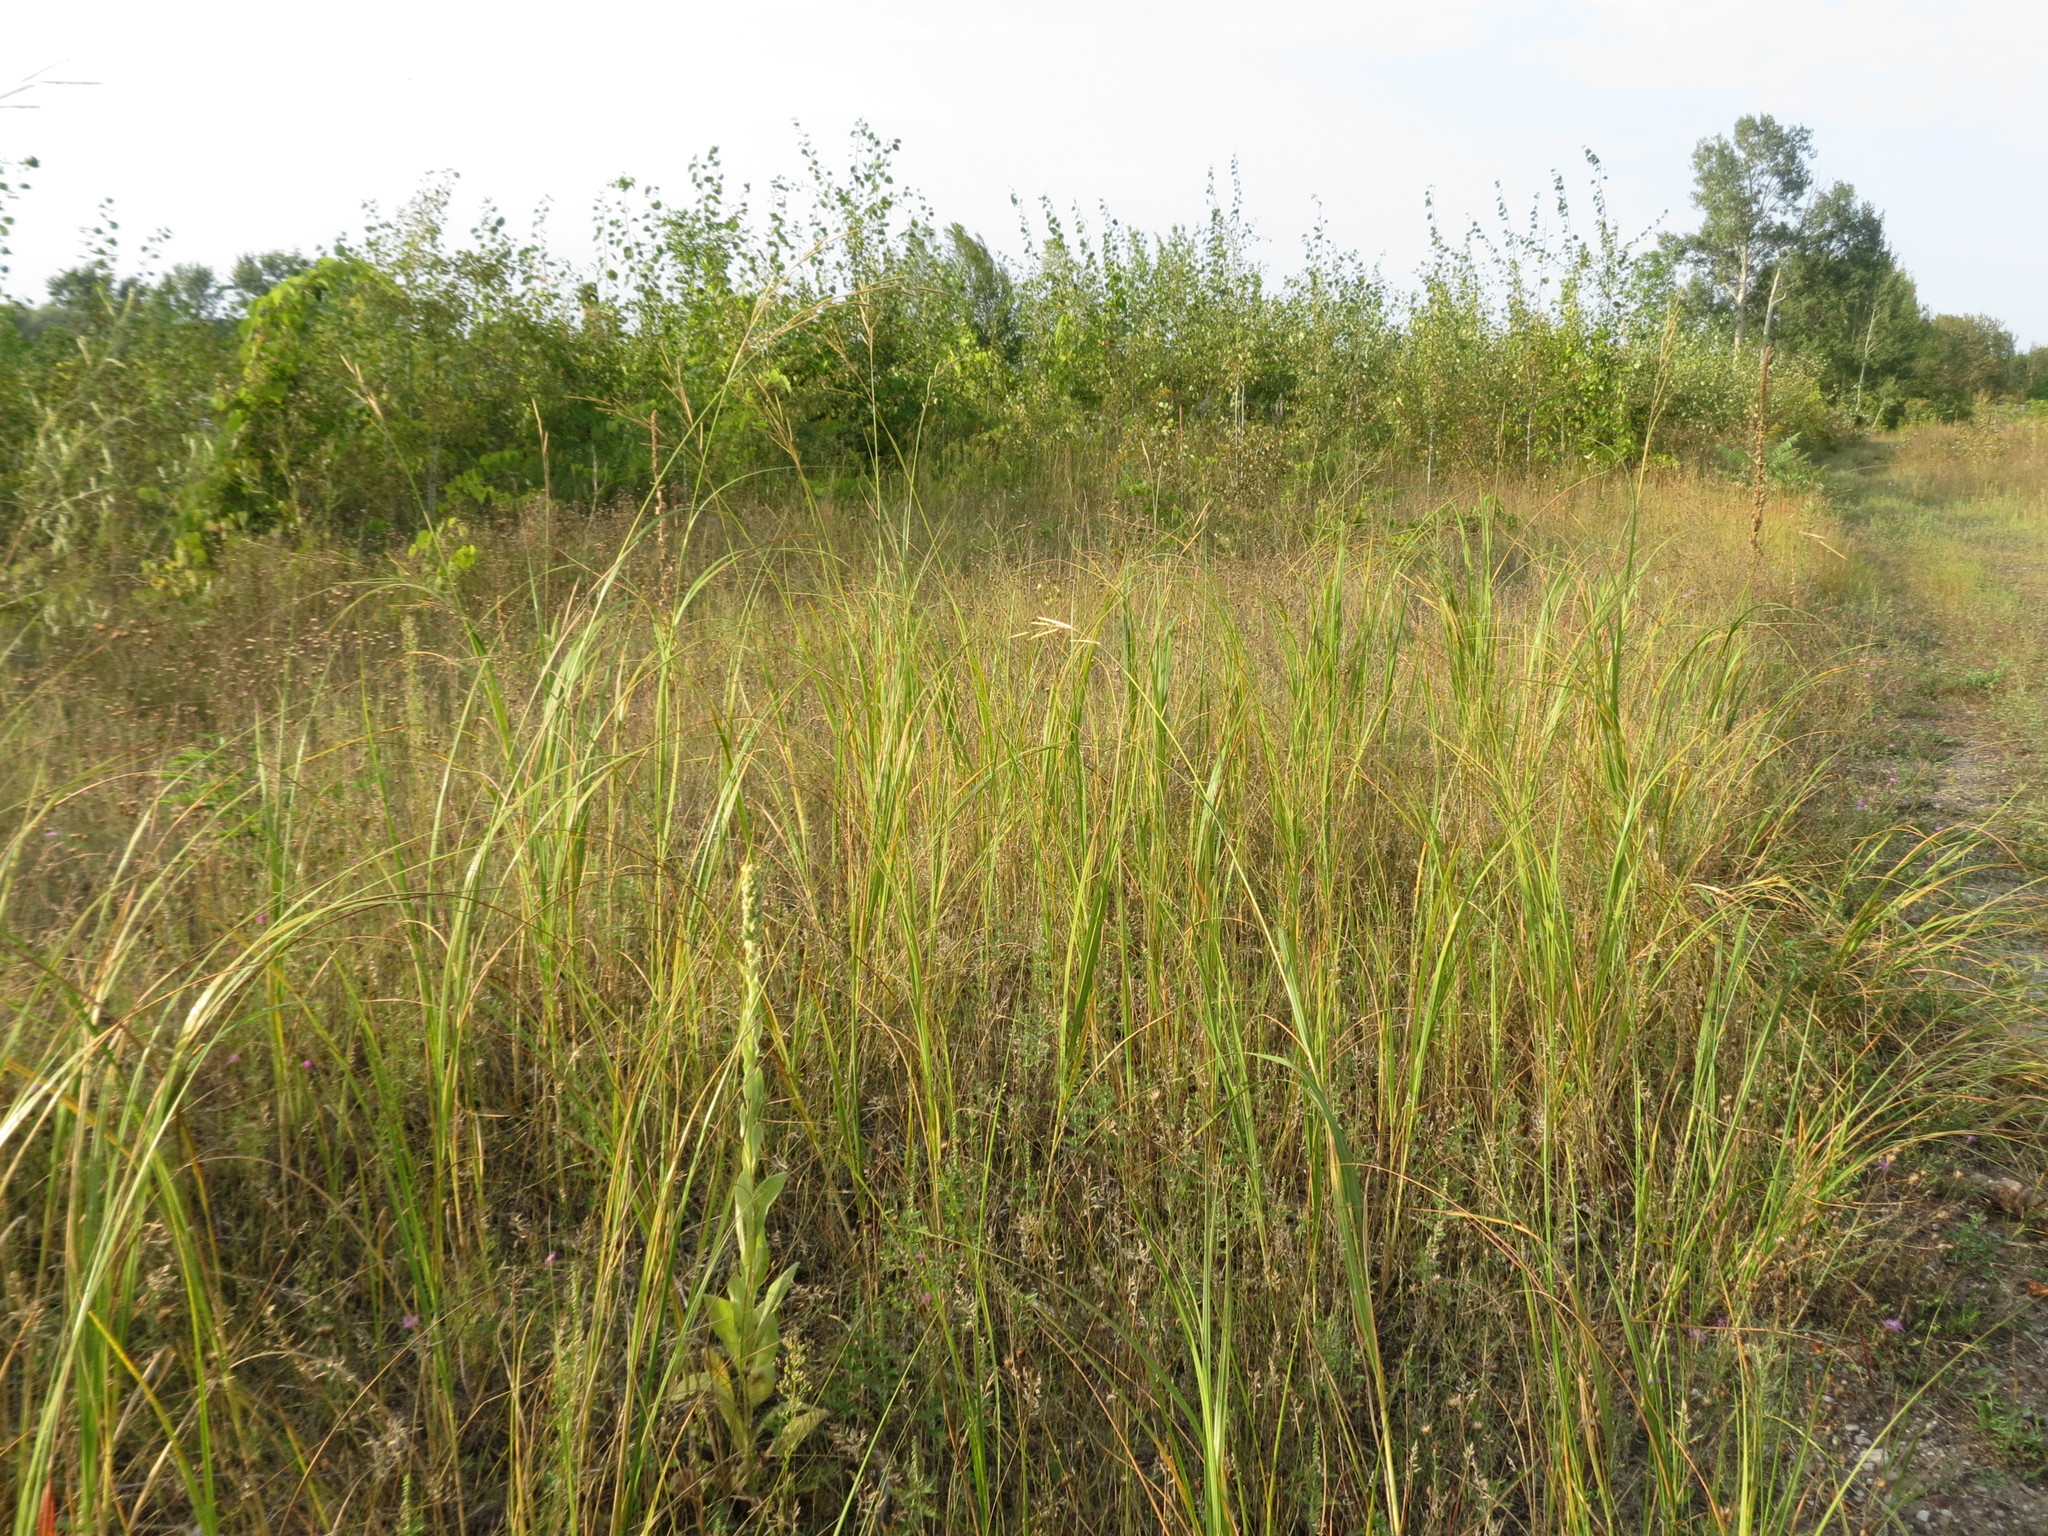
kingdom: Plantae
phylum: Tracheophyta
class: Liliopsida
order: Poales
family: Poaceae
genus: Sporobolus
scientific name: Sporobolus michauxianus
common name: Freshwater cordgrass
